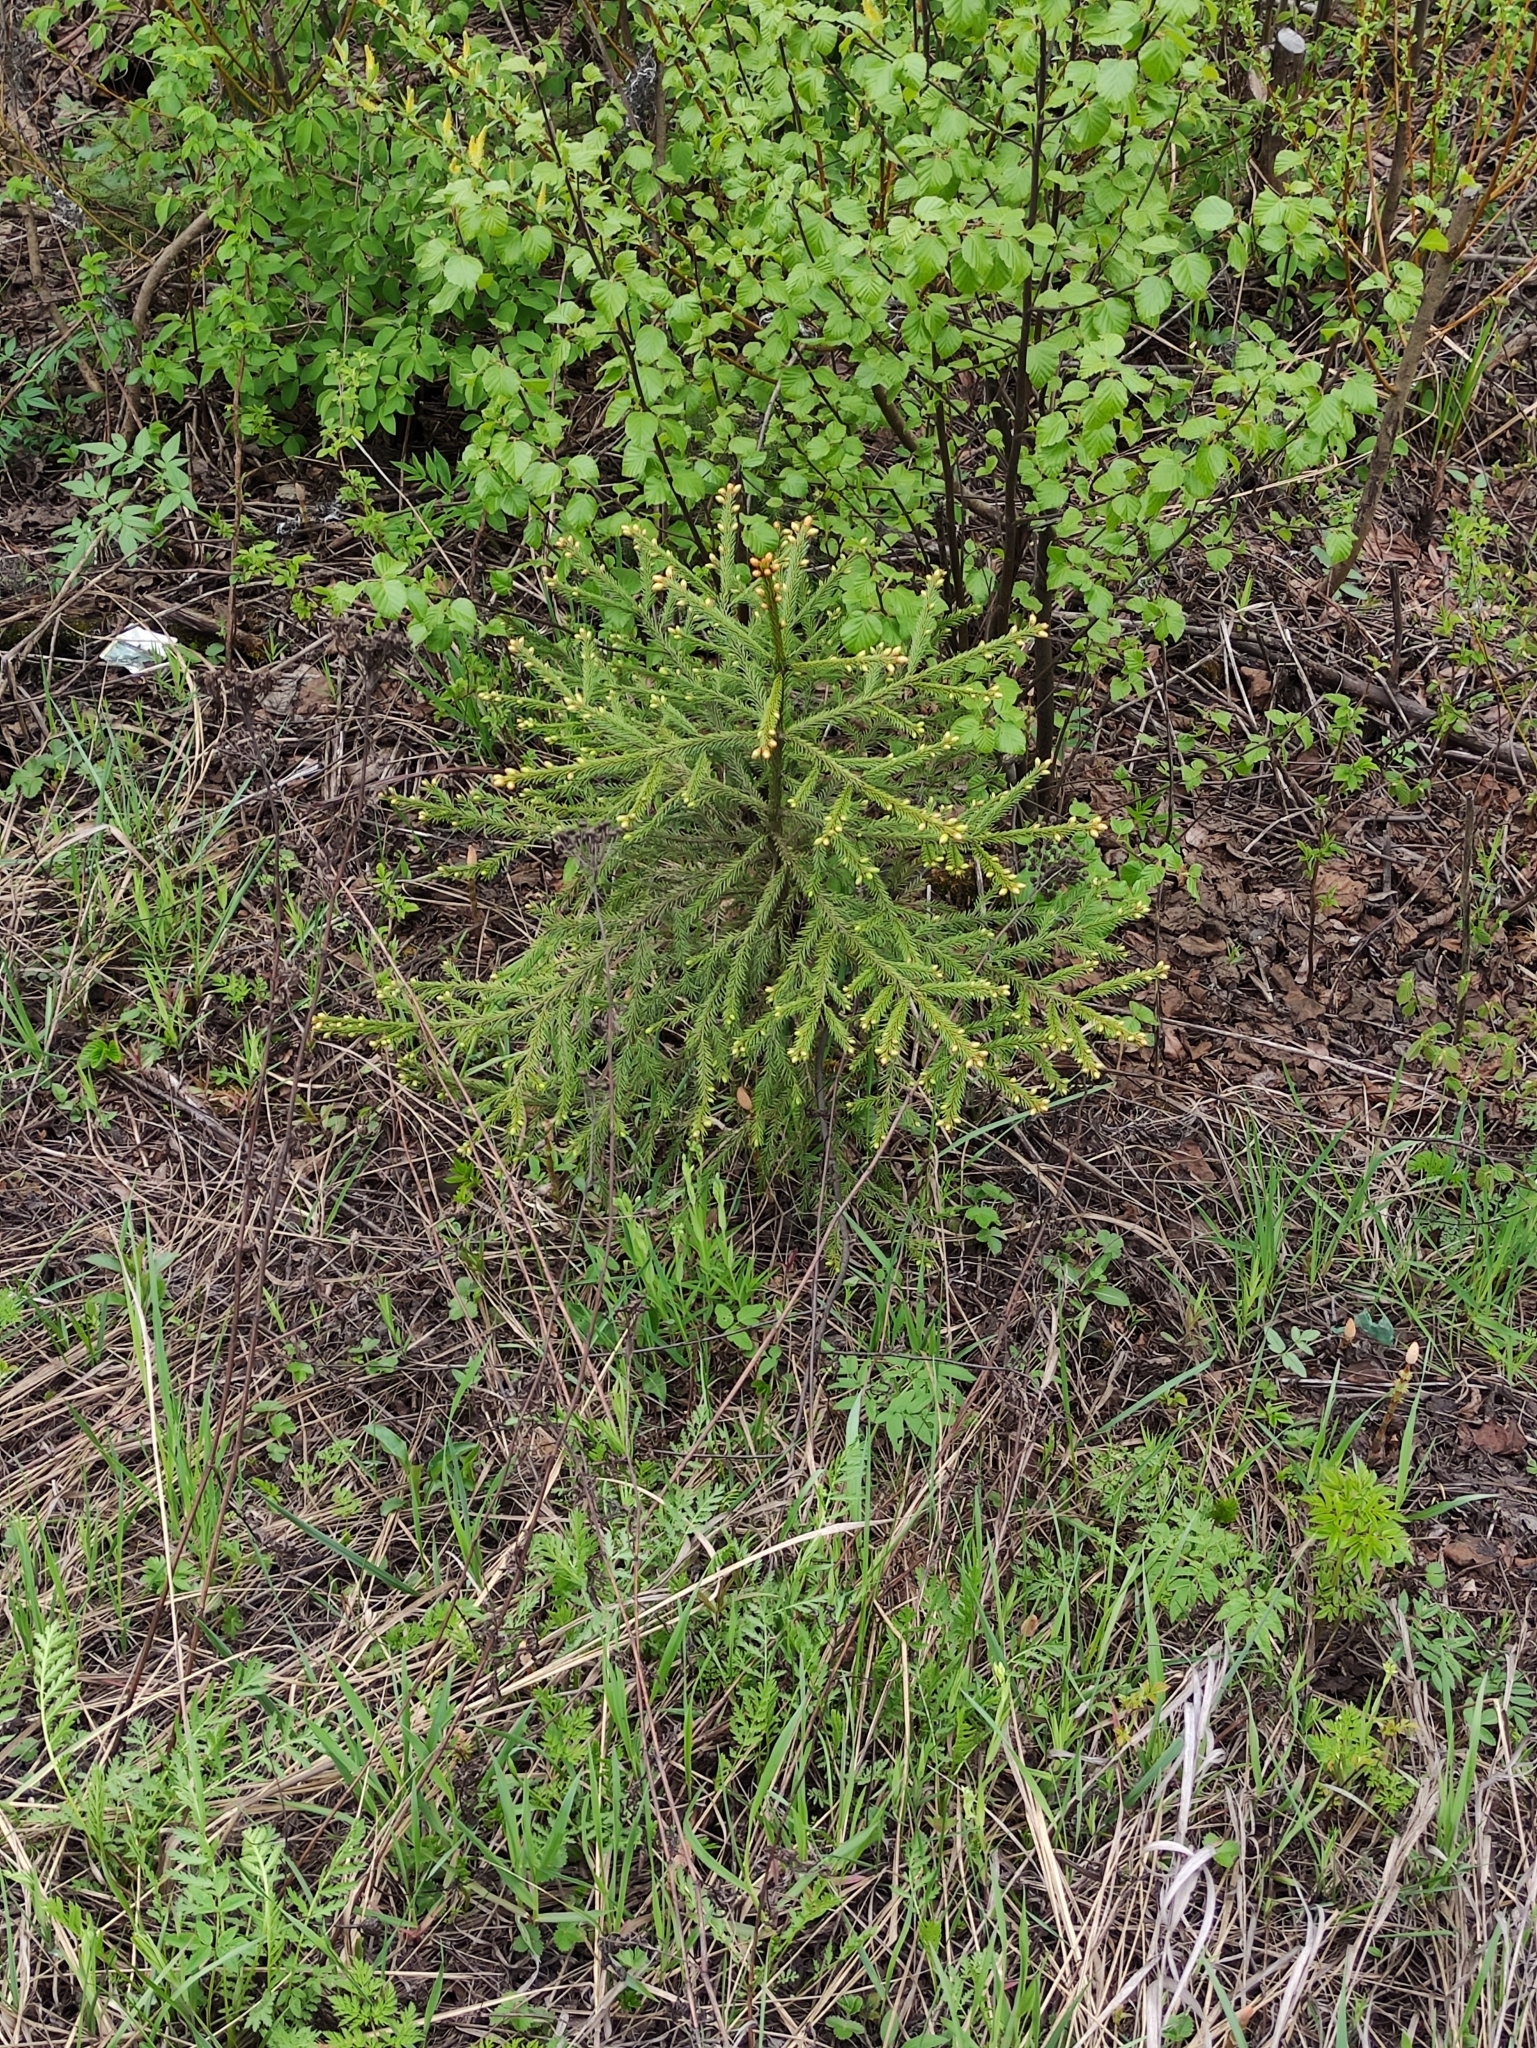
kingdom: Plantae
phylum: Tracheophyta
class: Pinopsida
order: Pinales
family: Pinaceae
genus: Picea
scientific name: Picea abies
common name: Norway spruce
